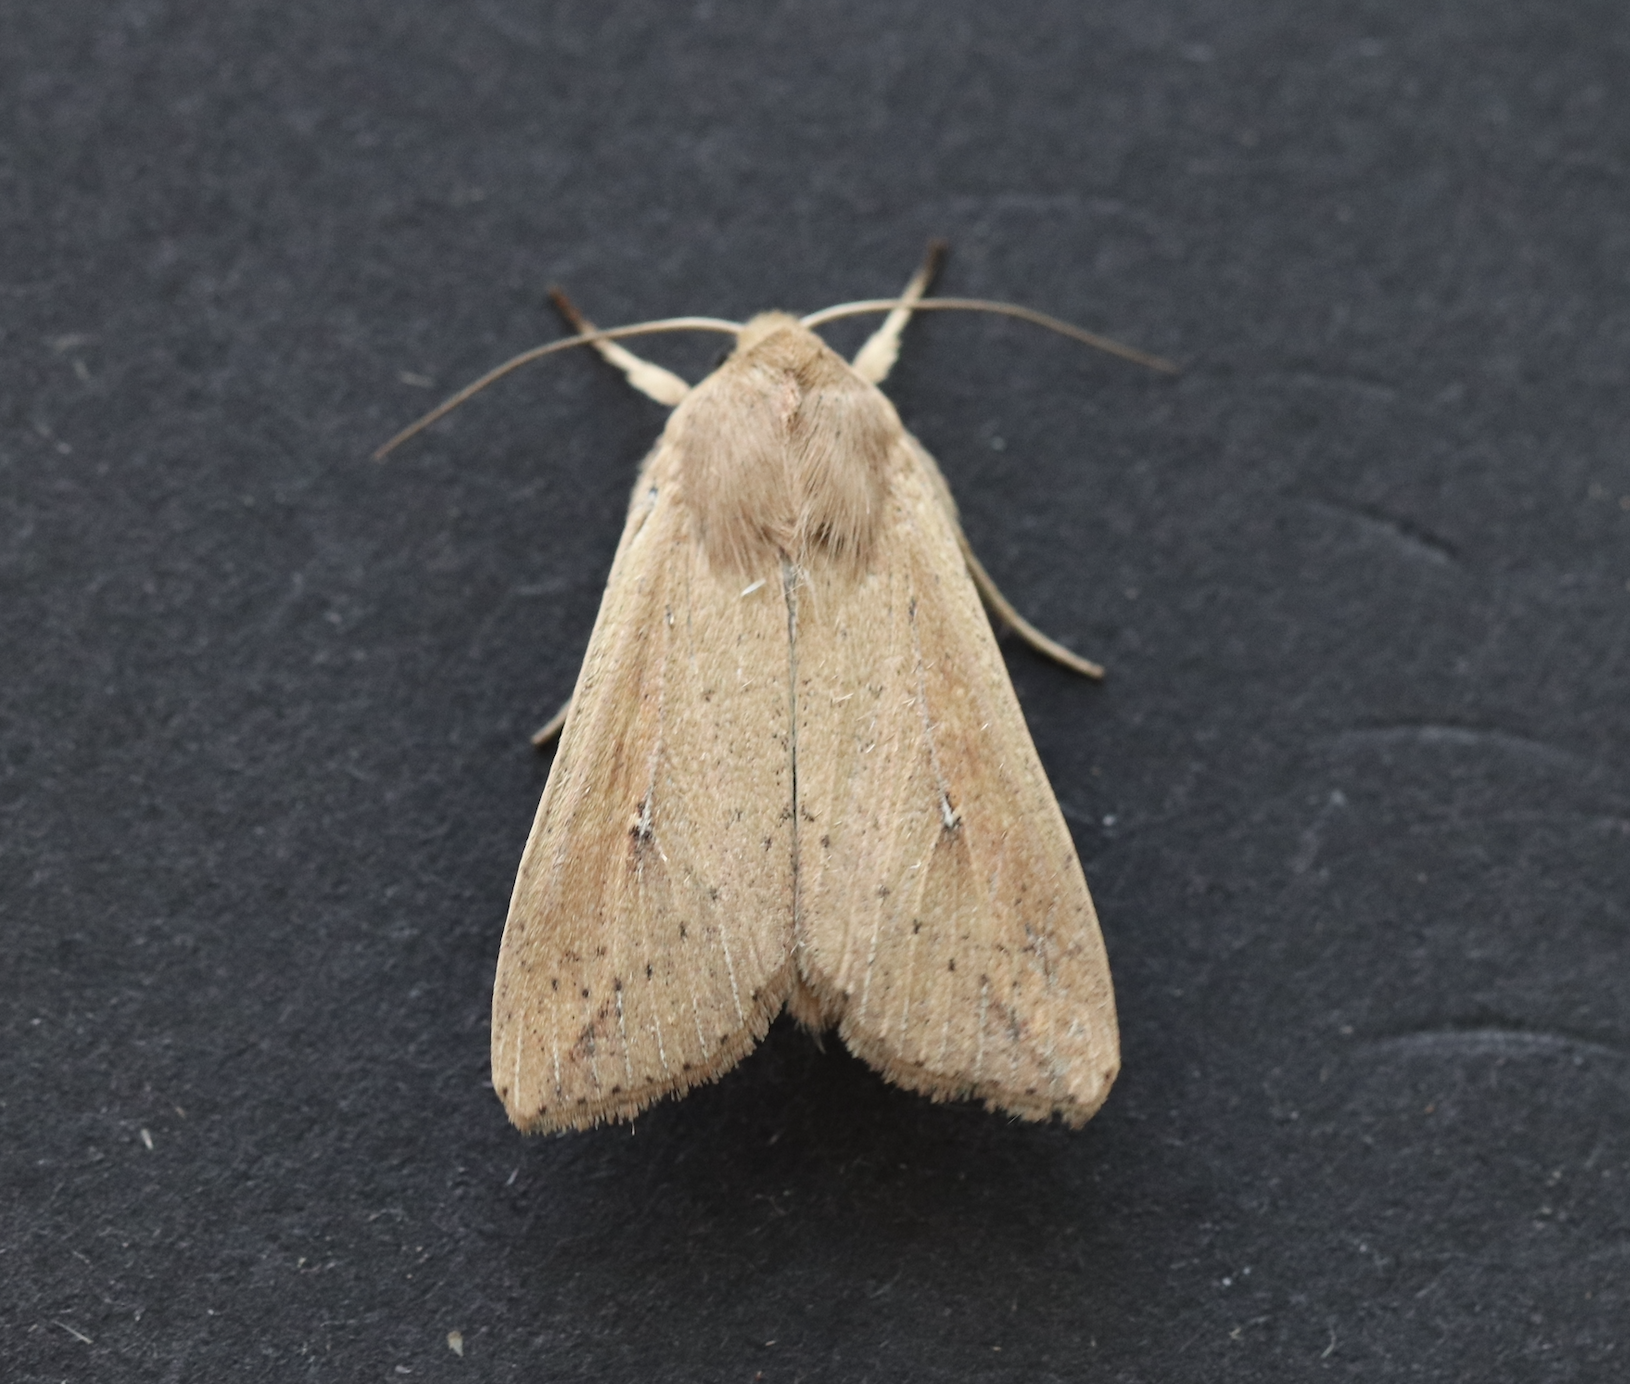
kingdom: Animalia
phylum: Arthropoda
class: Insecta
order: Lepidoptera
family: Noctuidae
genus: Mythimna
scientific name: Mythimna unipuncta
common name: White-speck
